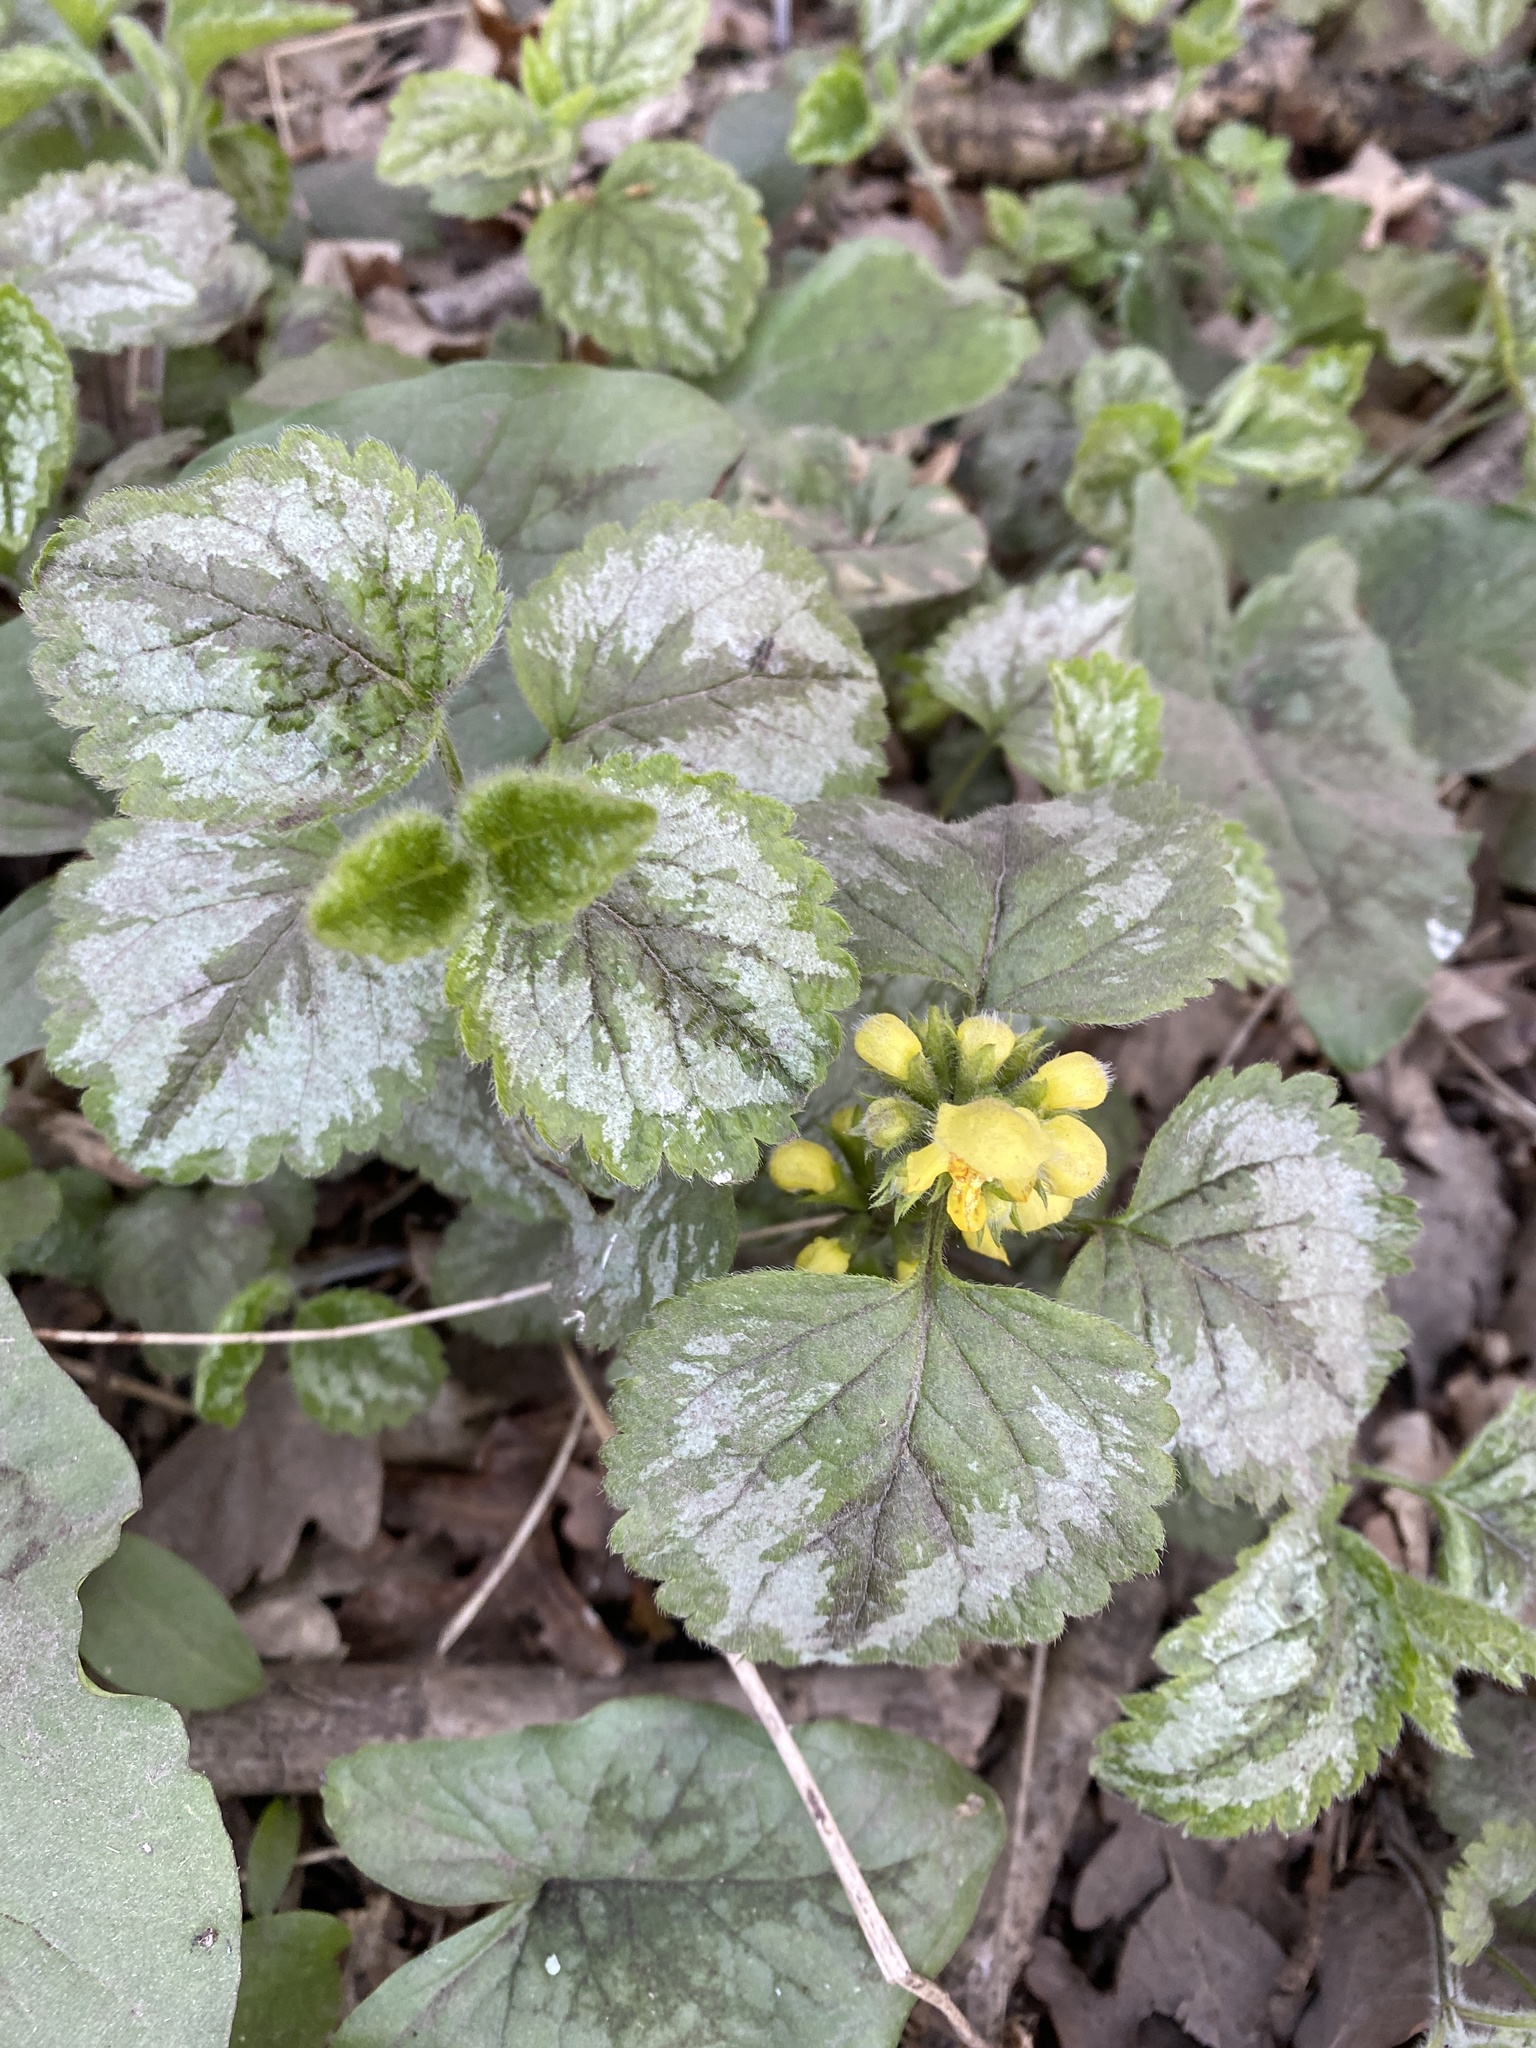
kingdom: Plantae
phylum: Tracheophyta
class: Magnoliopsida
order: Lamiales
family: Lamiaceae
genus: Lamium
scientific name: Lamium galeobdolon
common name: Yellow archangel
